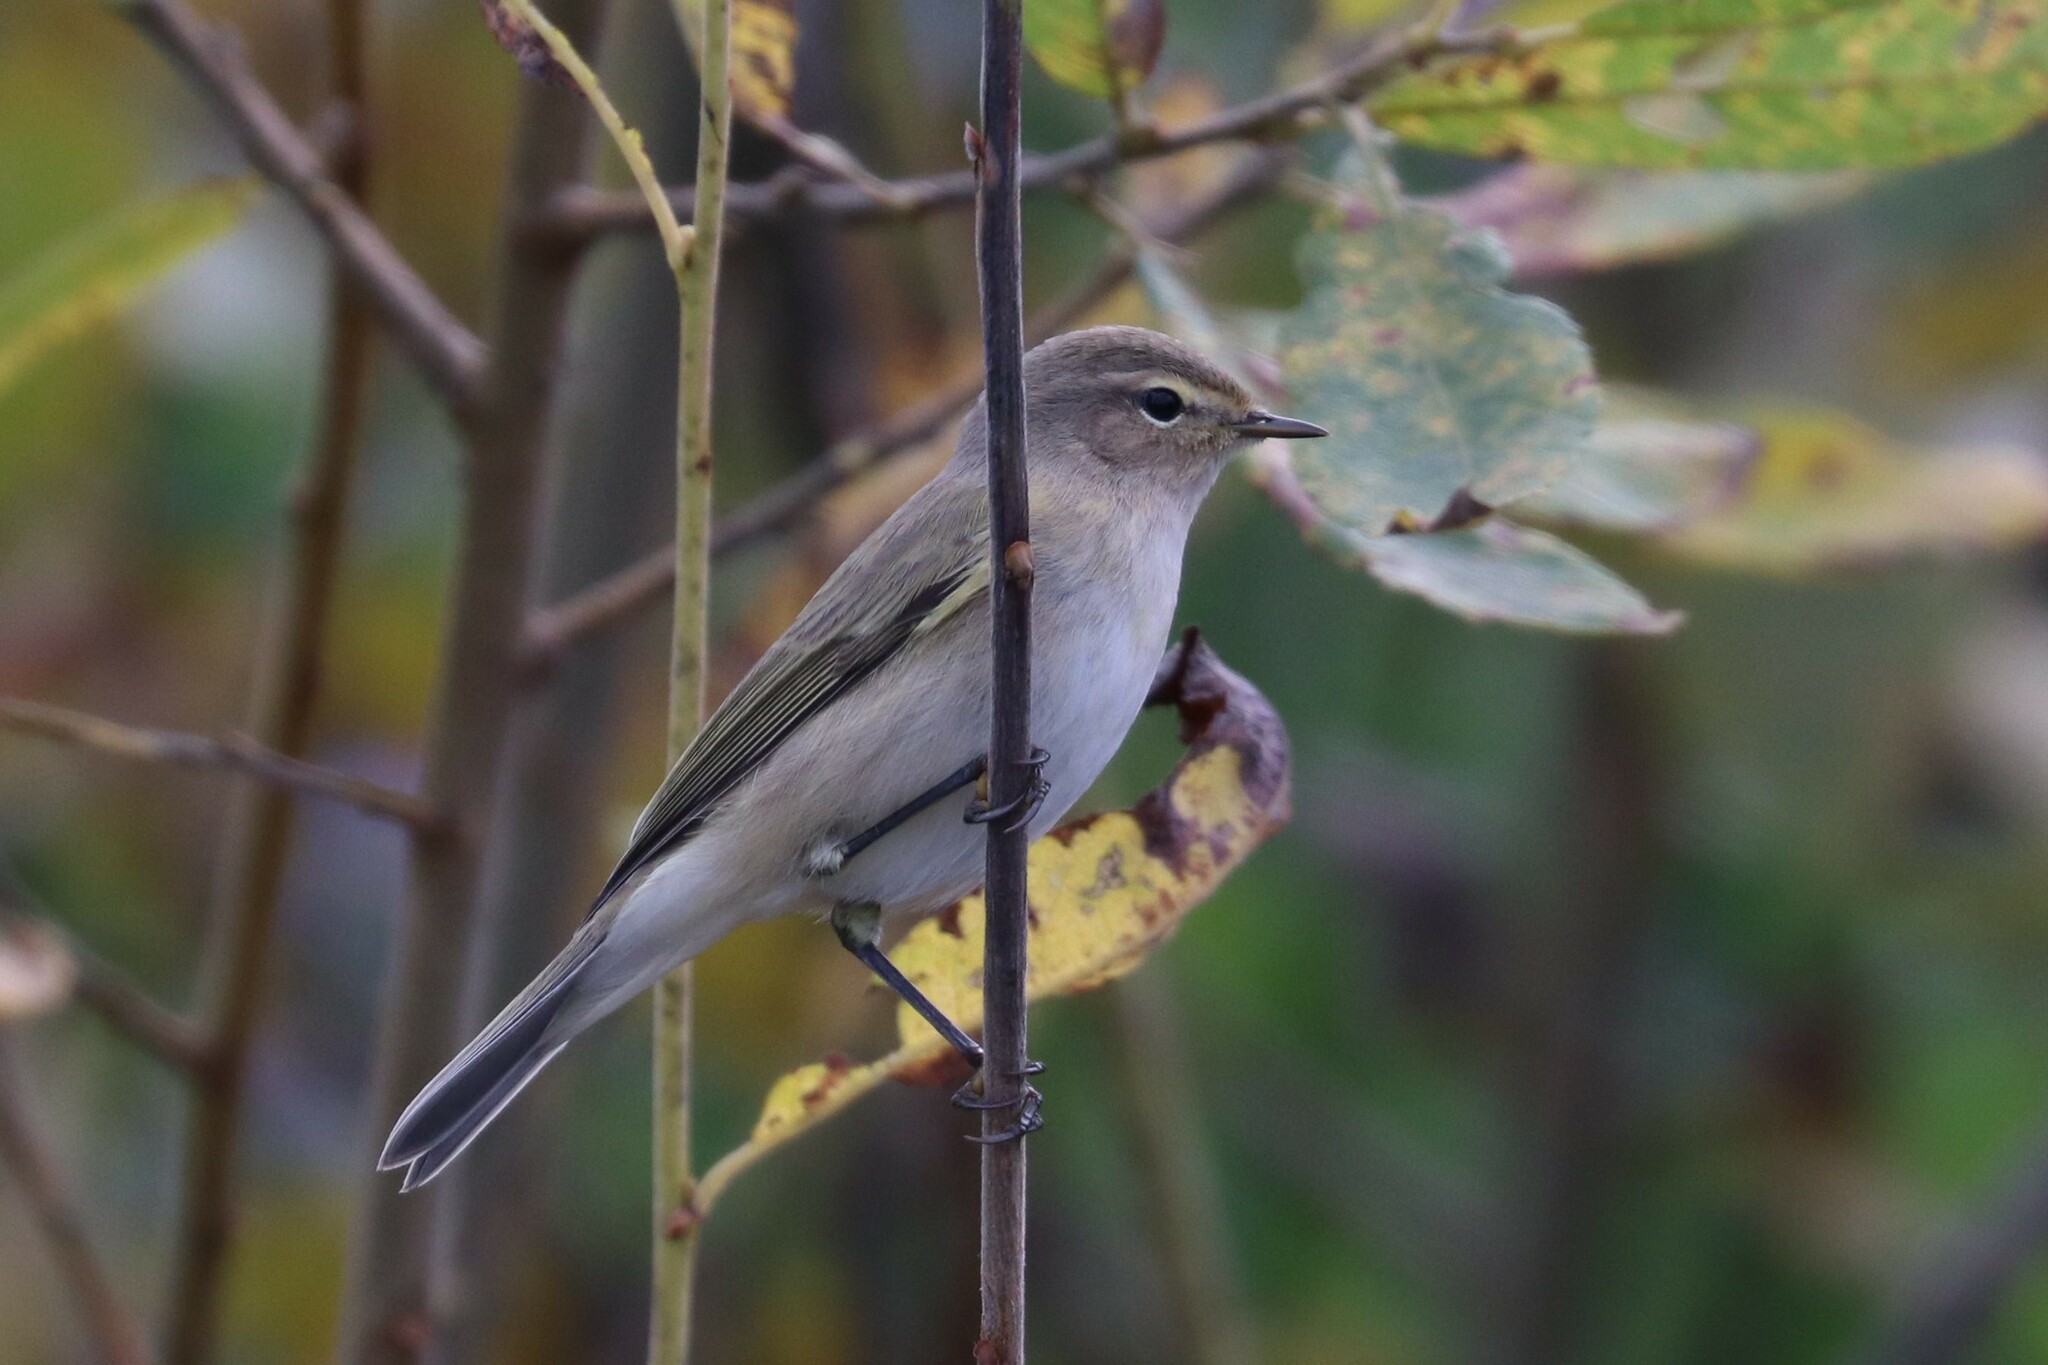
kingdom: Animalia
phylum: Chordata
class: Aves
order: Passeriformes
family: Phylloscopidae
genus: Phylloscopus
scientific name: Phylloscopus collybita
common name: Common chiffchaff
